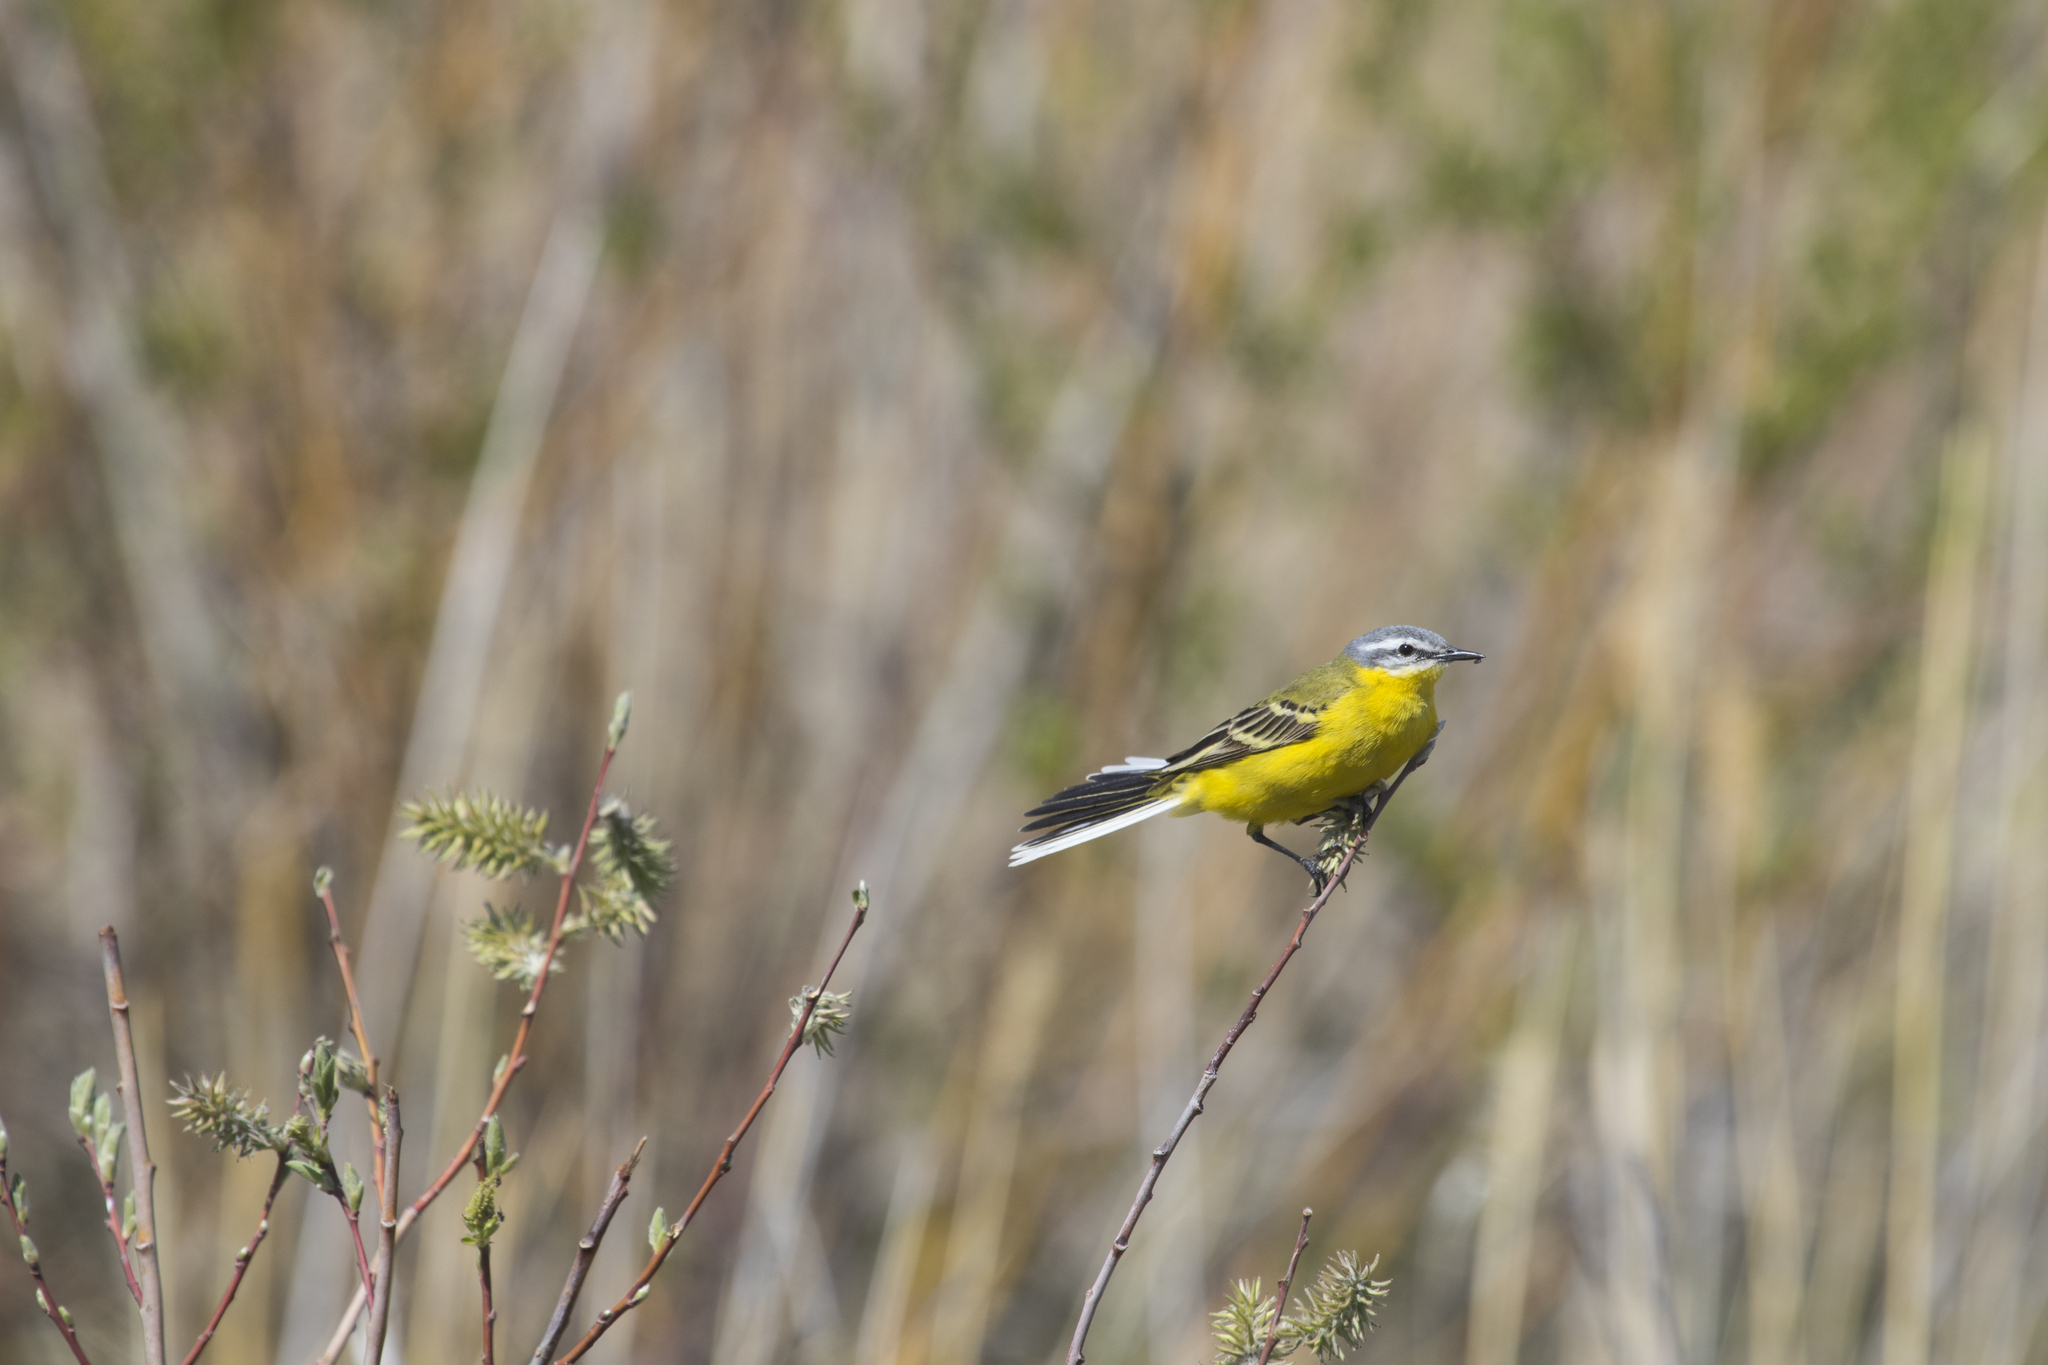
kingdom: Animalia
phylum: Chordata
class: Aves
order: Passeriformes
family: Motacillidae
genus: Motacilla
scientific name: Motacilla flava
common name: Western yellow wagtail
